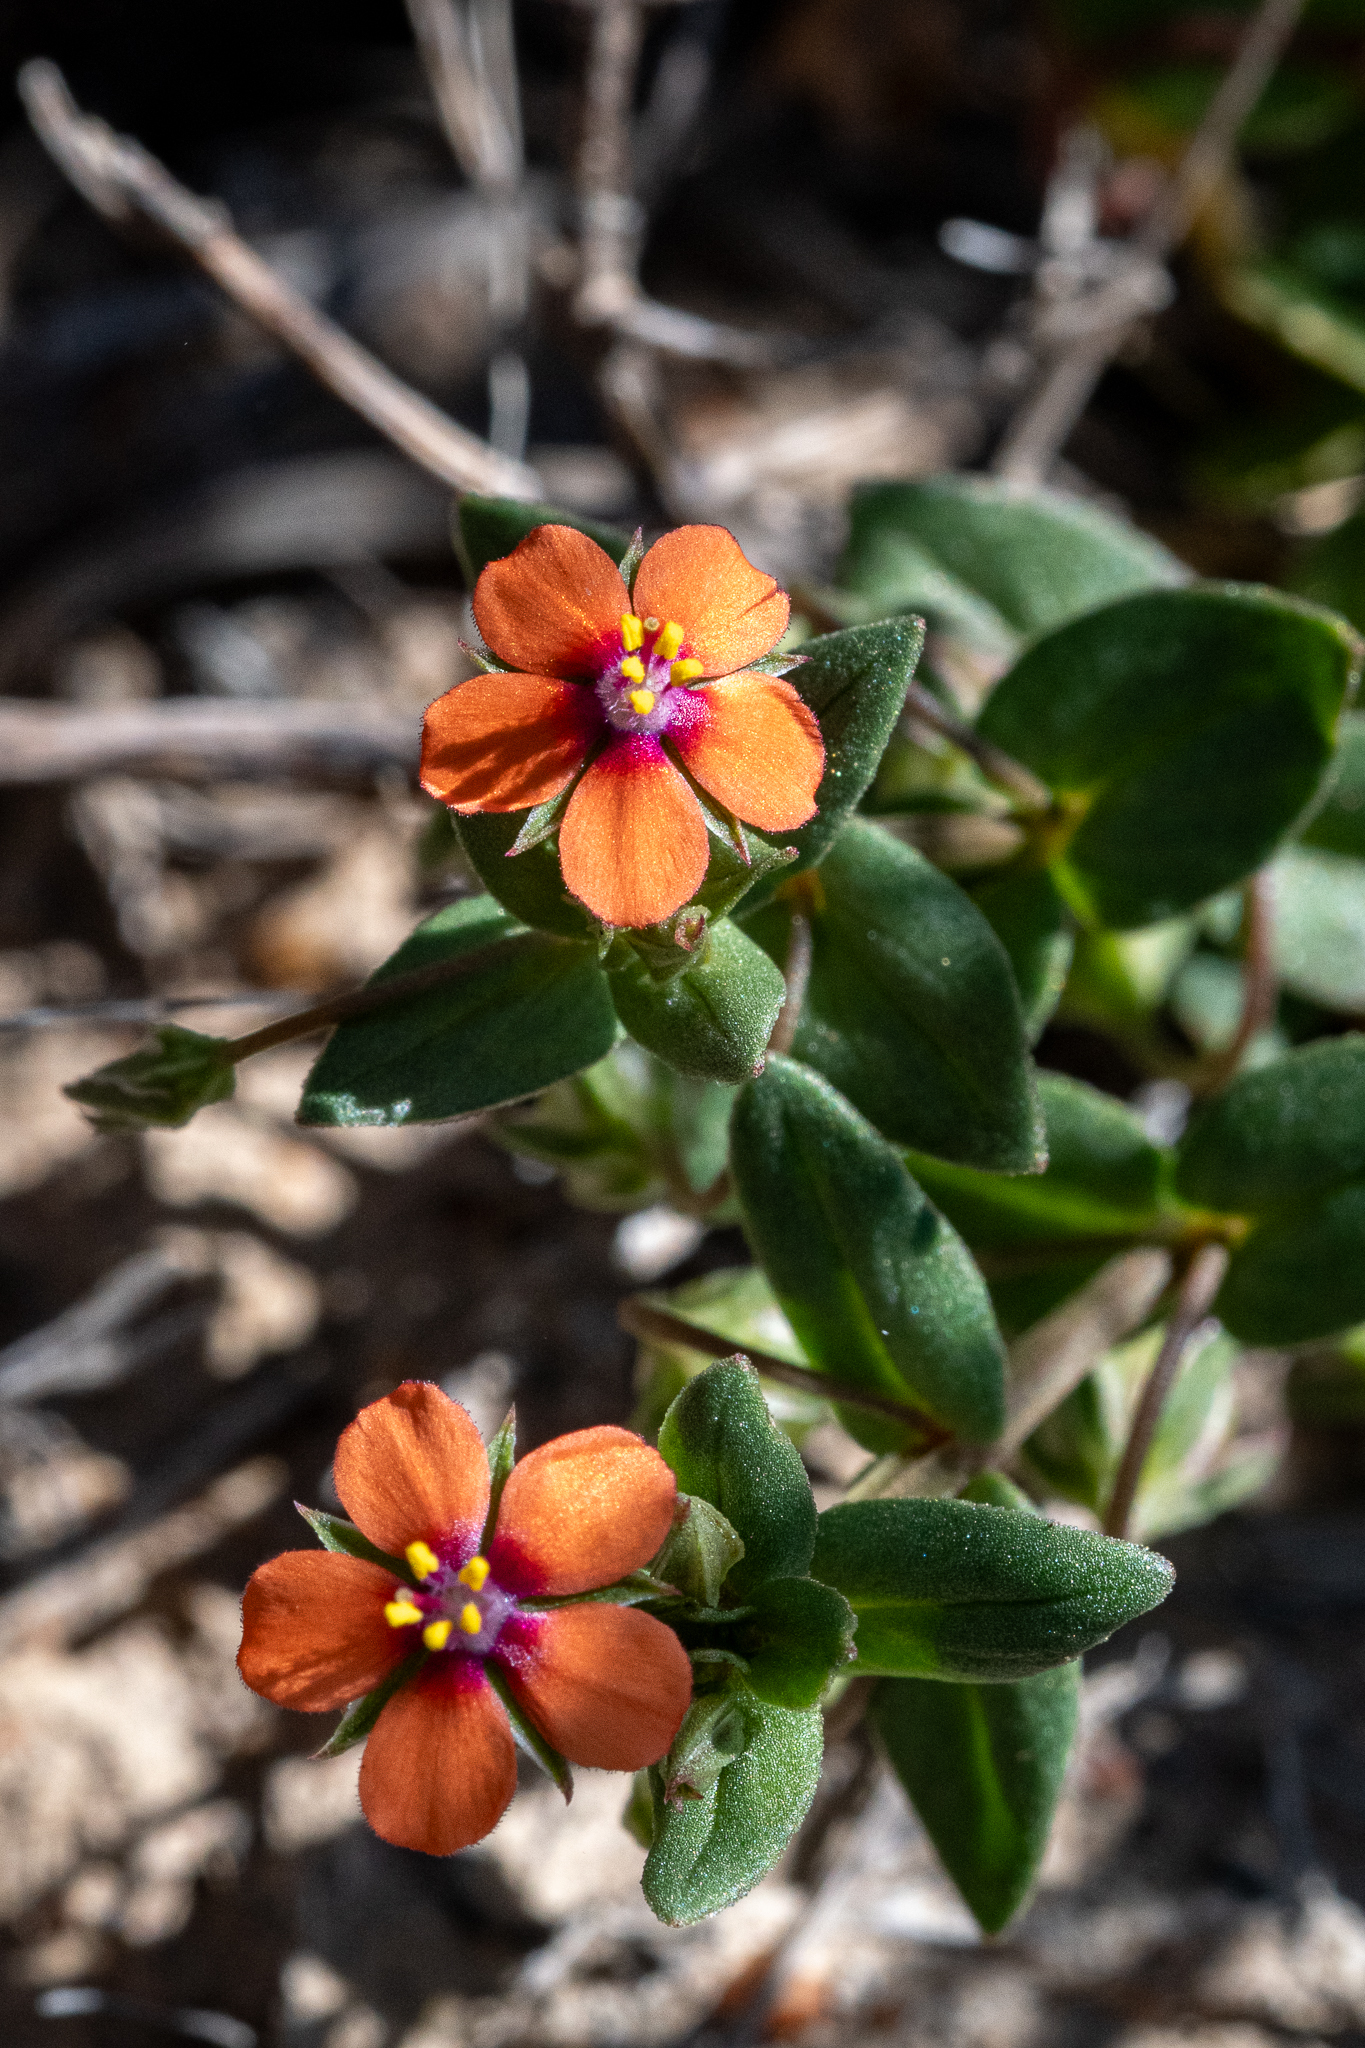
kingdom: Plantae
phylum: Tracheophyta
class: Magnoliopsida
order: Ericales
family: Primulaceae
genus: Lysimachia
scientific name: Lysimachia arvensis
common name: Scarlet pimpernel
